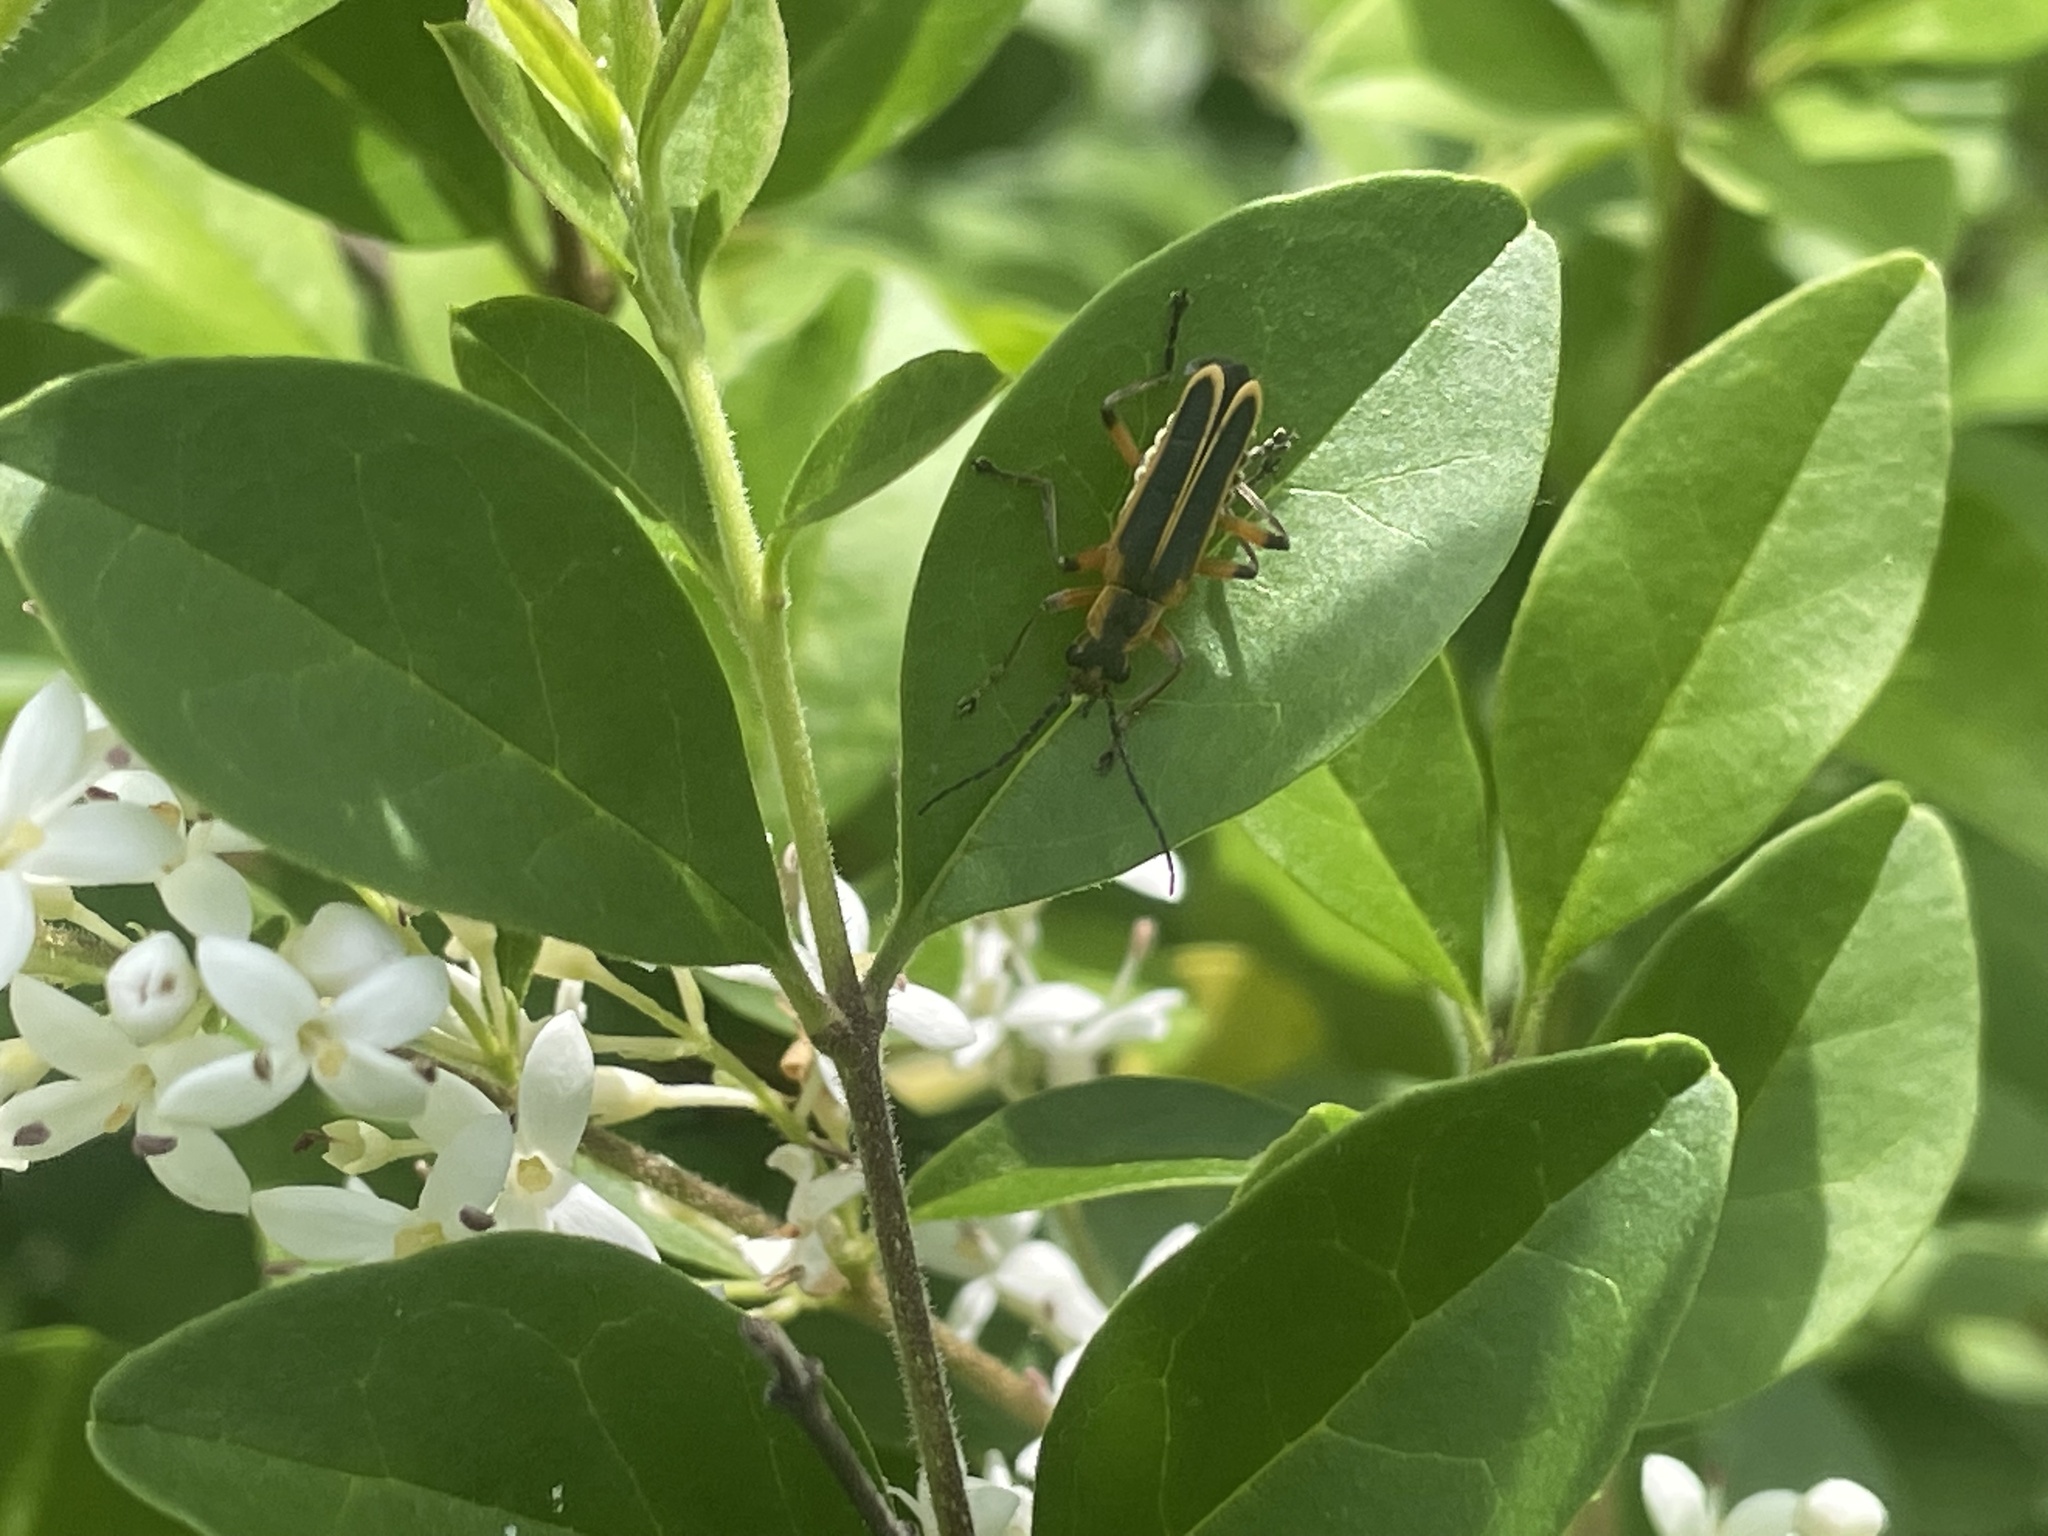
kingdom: Animalia
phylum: Arthropoda
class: Insecta
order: Coleoptera
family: Cantharidae
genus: Chauliognathus
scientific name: Chauliognathus marginatus
